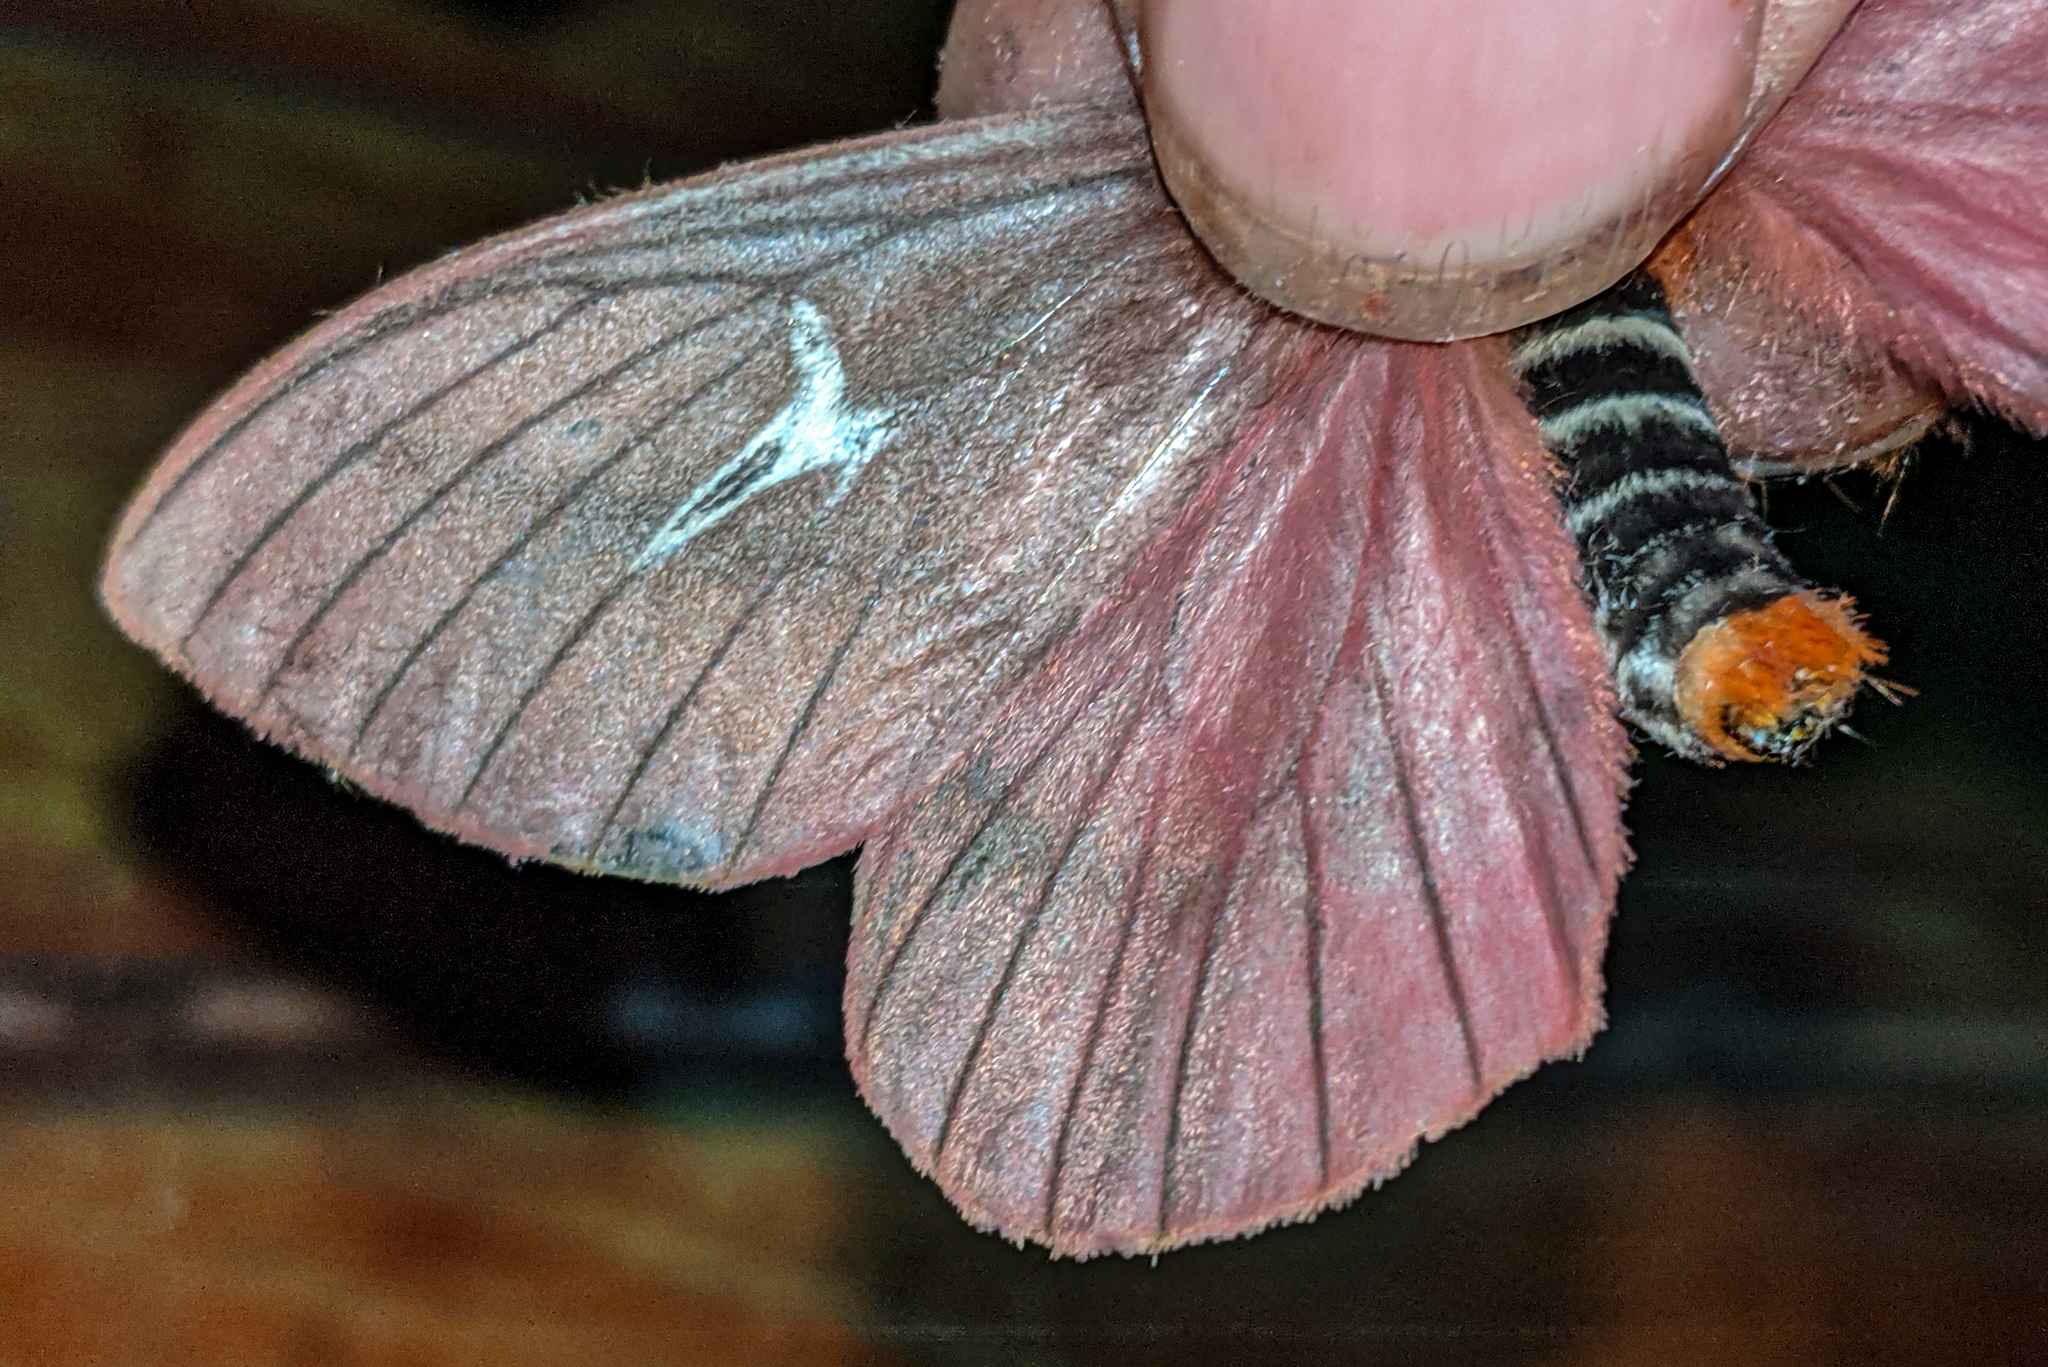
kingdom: Animalia
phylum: Arthropoda
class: Insecta
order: Lepidoptera
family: Saturniidae
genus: Cerodirphia
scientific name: Cerodirphia siriae
